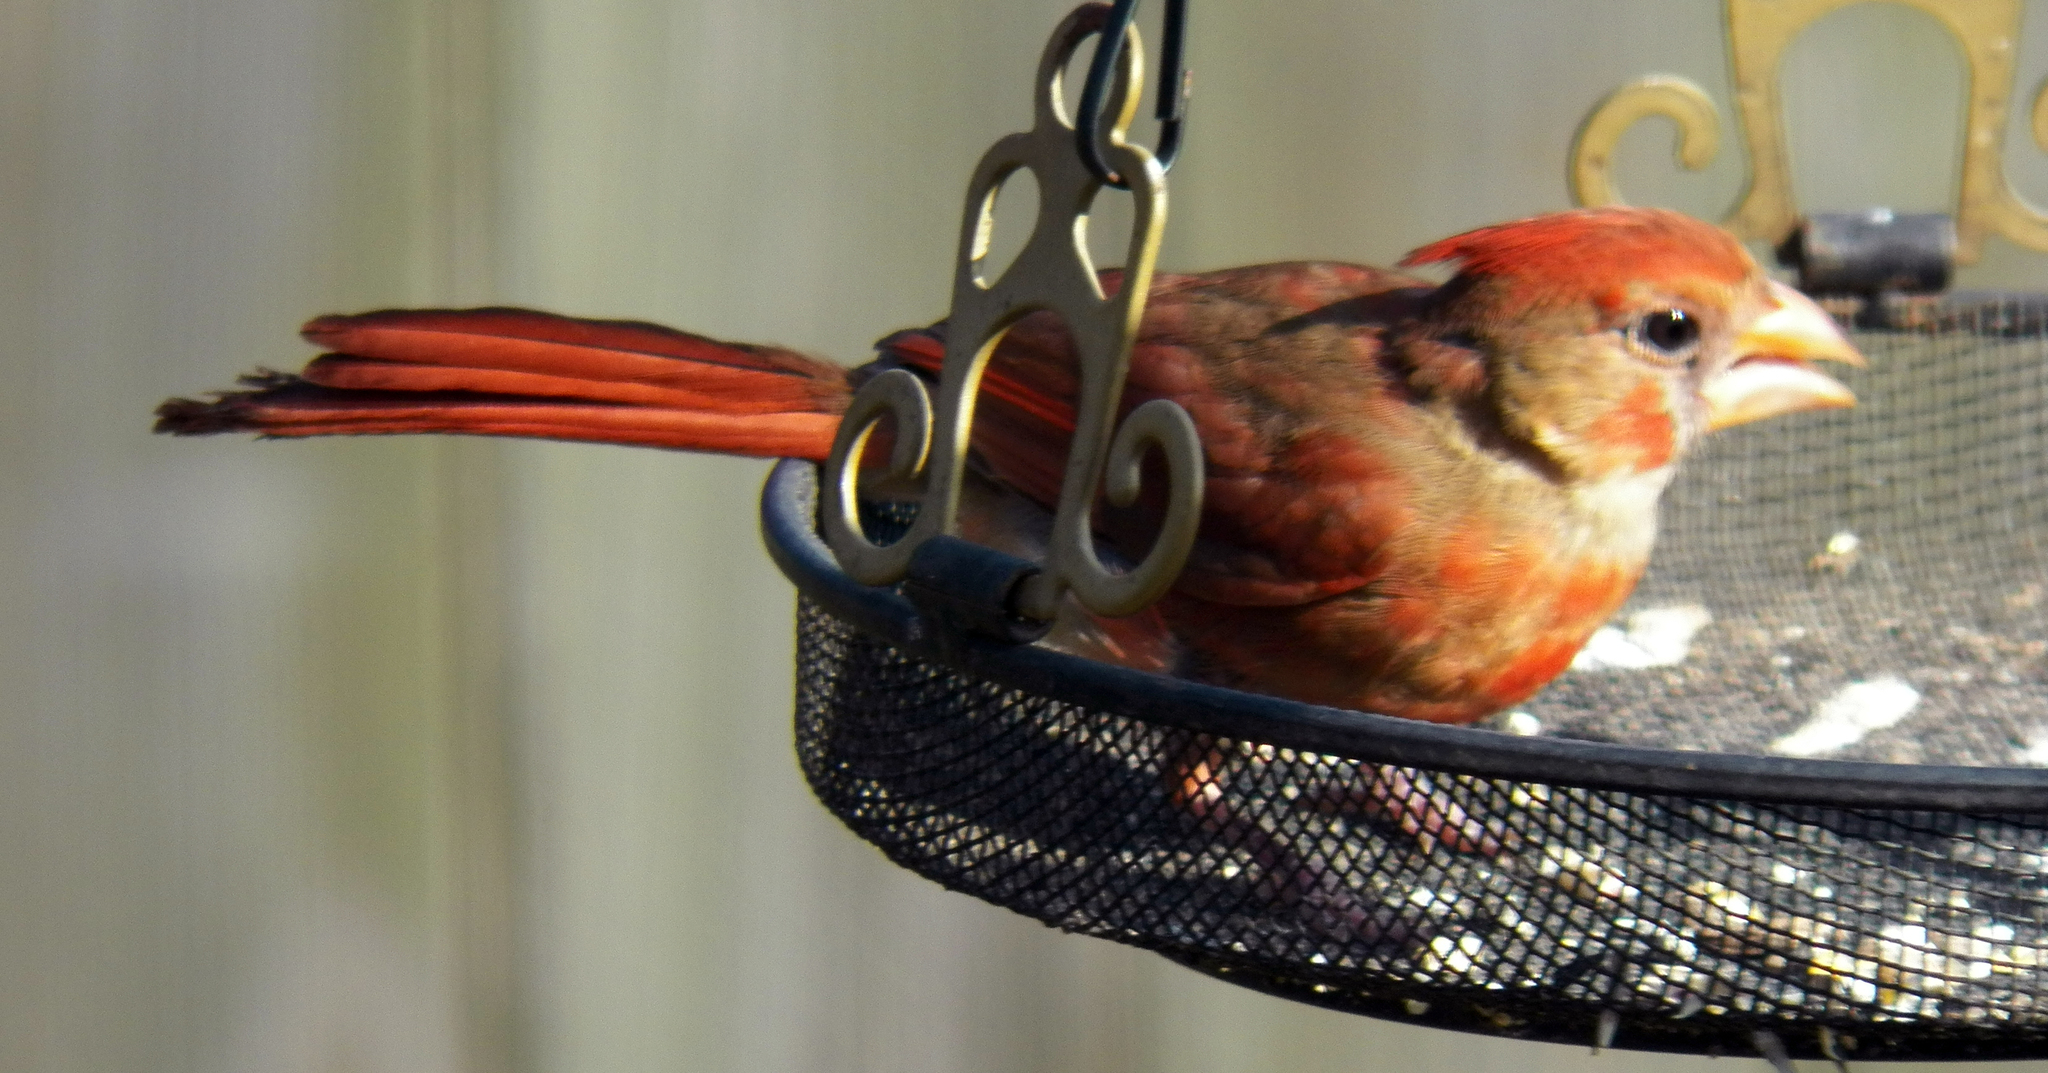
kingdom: Animalia
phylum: Chordata
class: Aves
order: Passeriformes
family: Cardinalidae
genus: Cardinalis
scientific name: Cardinalis cardinalis
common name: Northern cardinal
